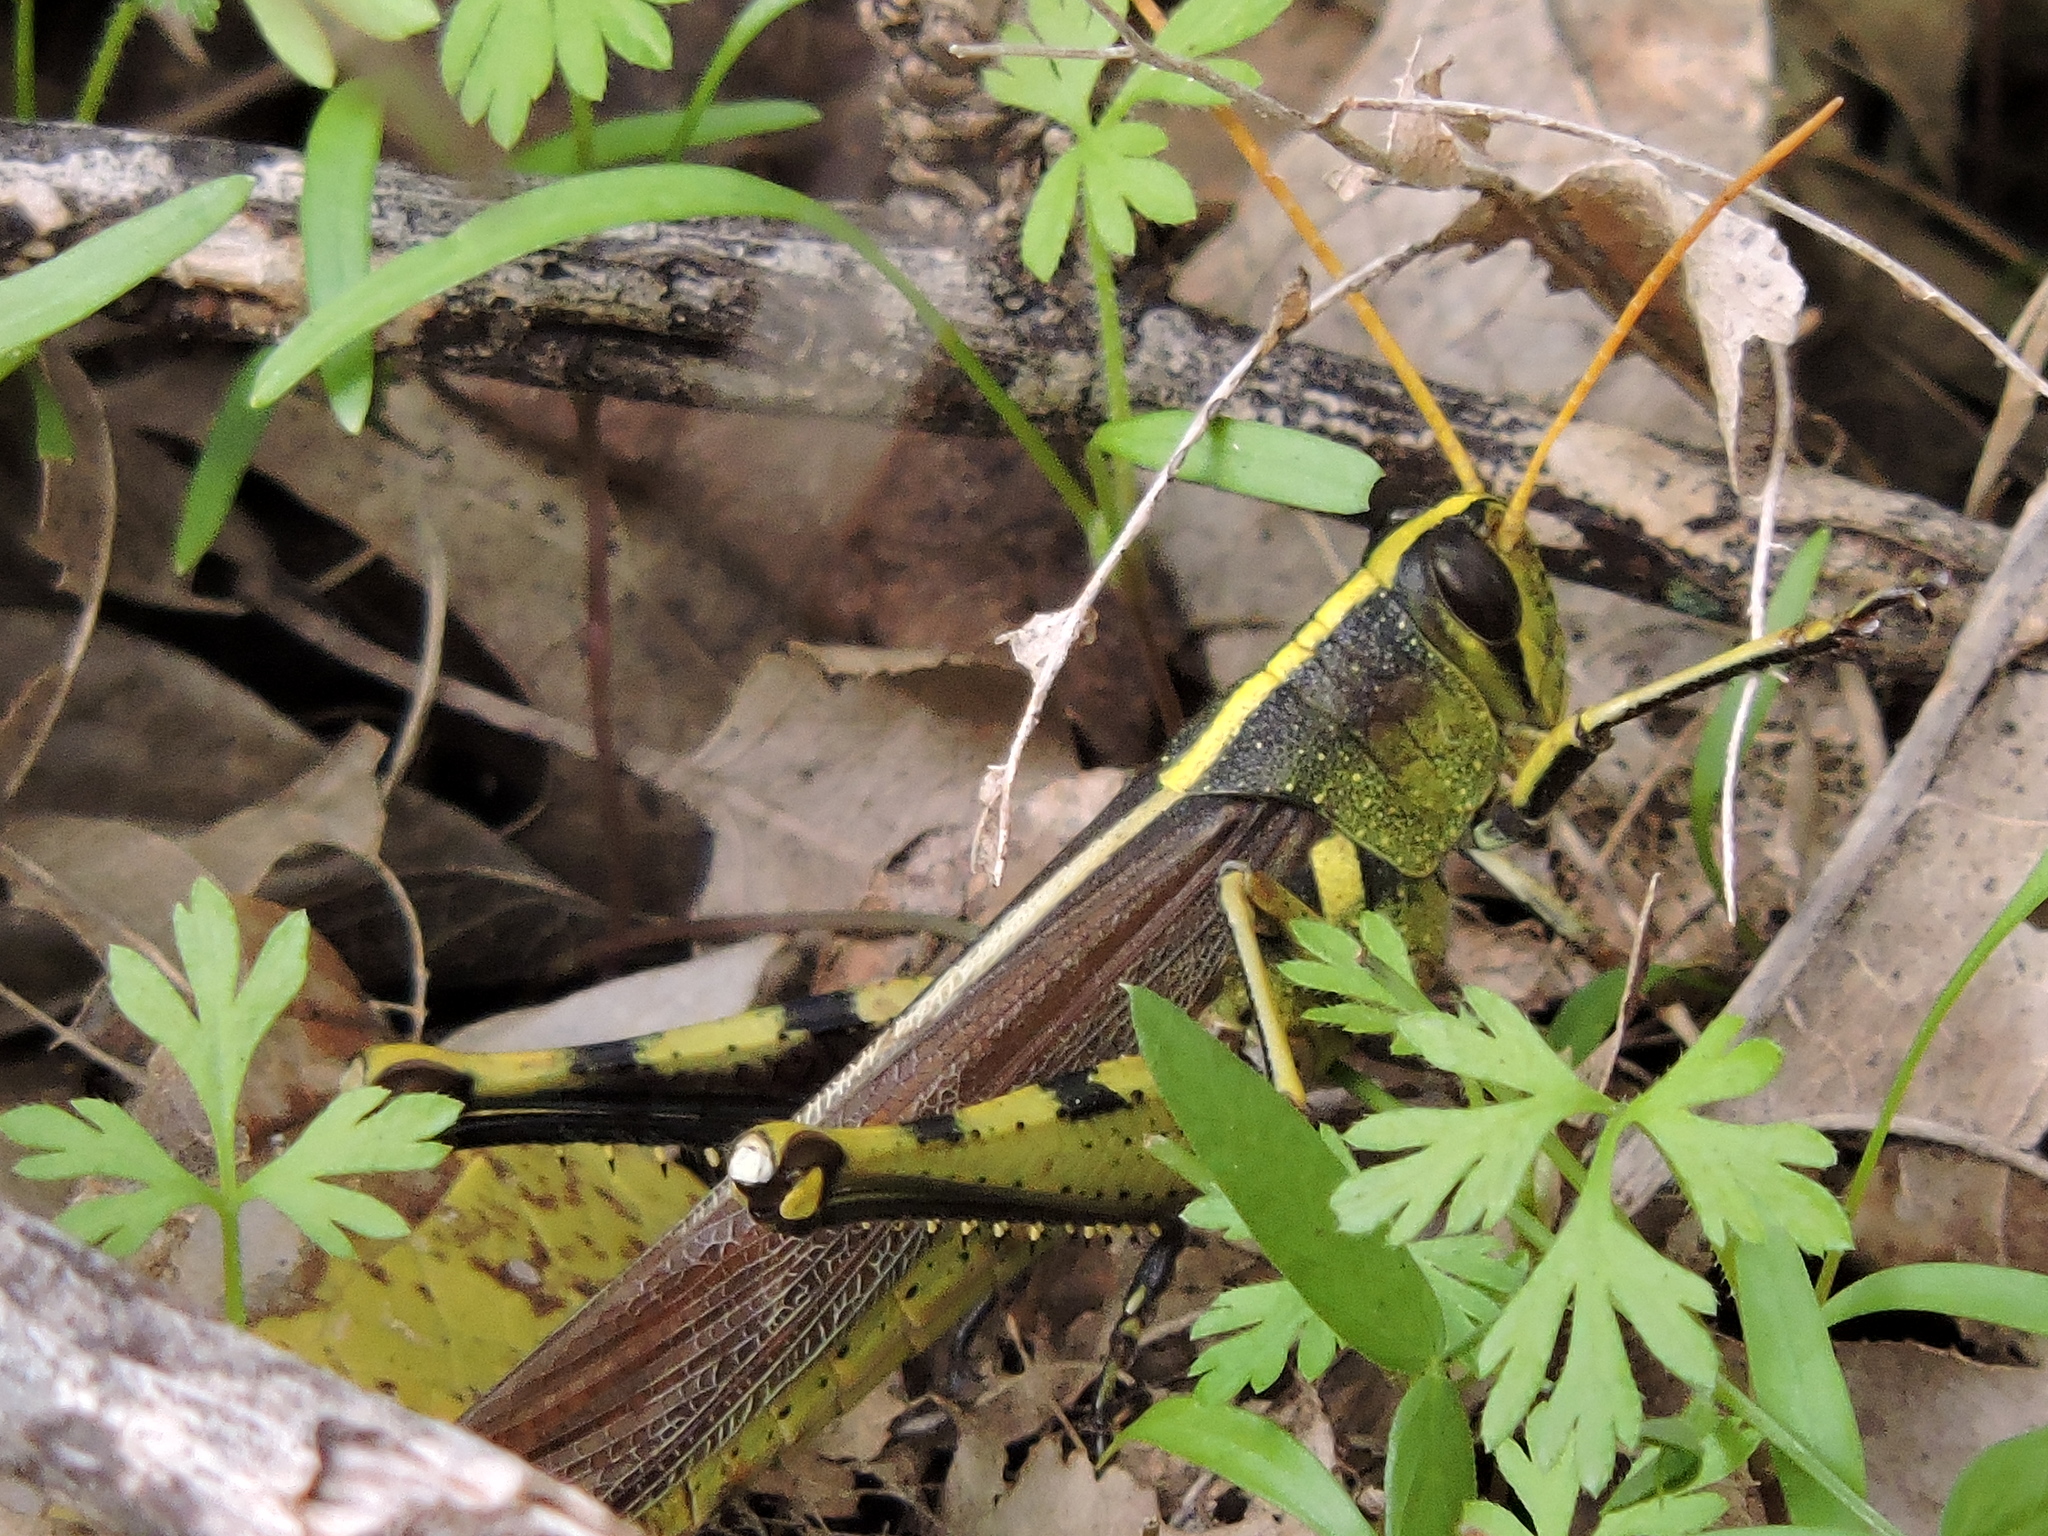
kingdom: Animalia
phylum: Arthropoda
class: Insecta
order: Orthoptera
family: Acrididae
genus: Schistocerca
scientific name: Schistocerca obscura
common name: Obscure bird grasshopper
